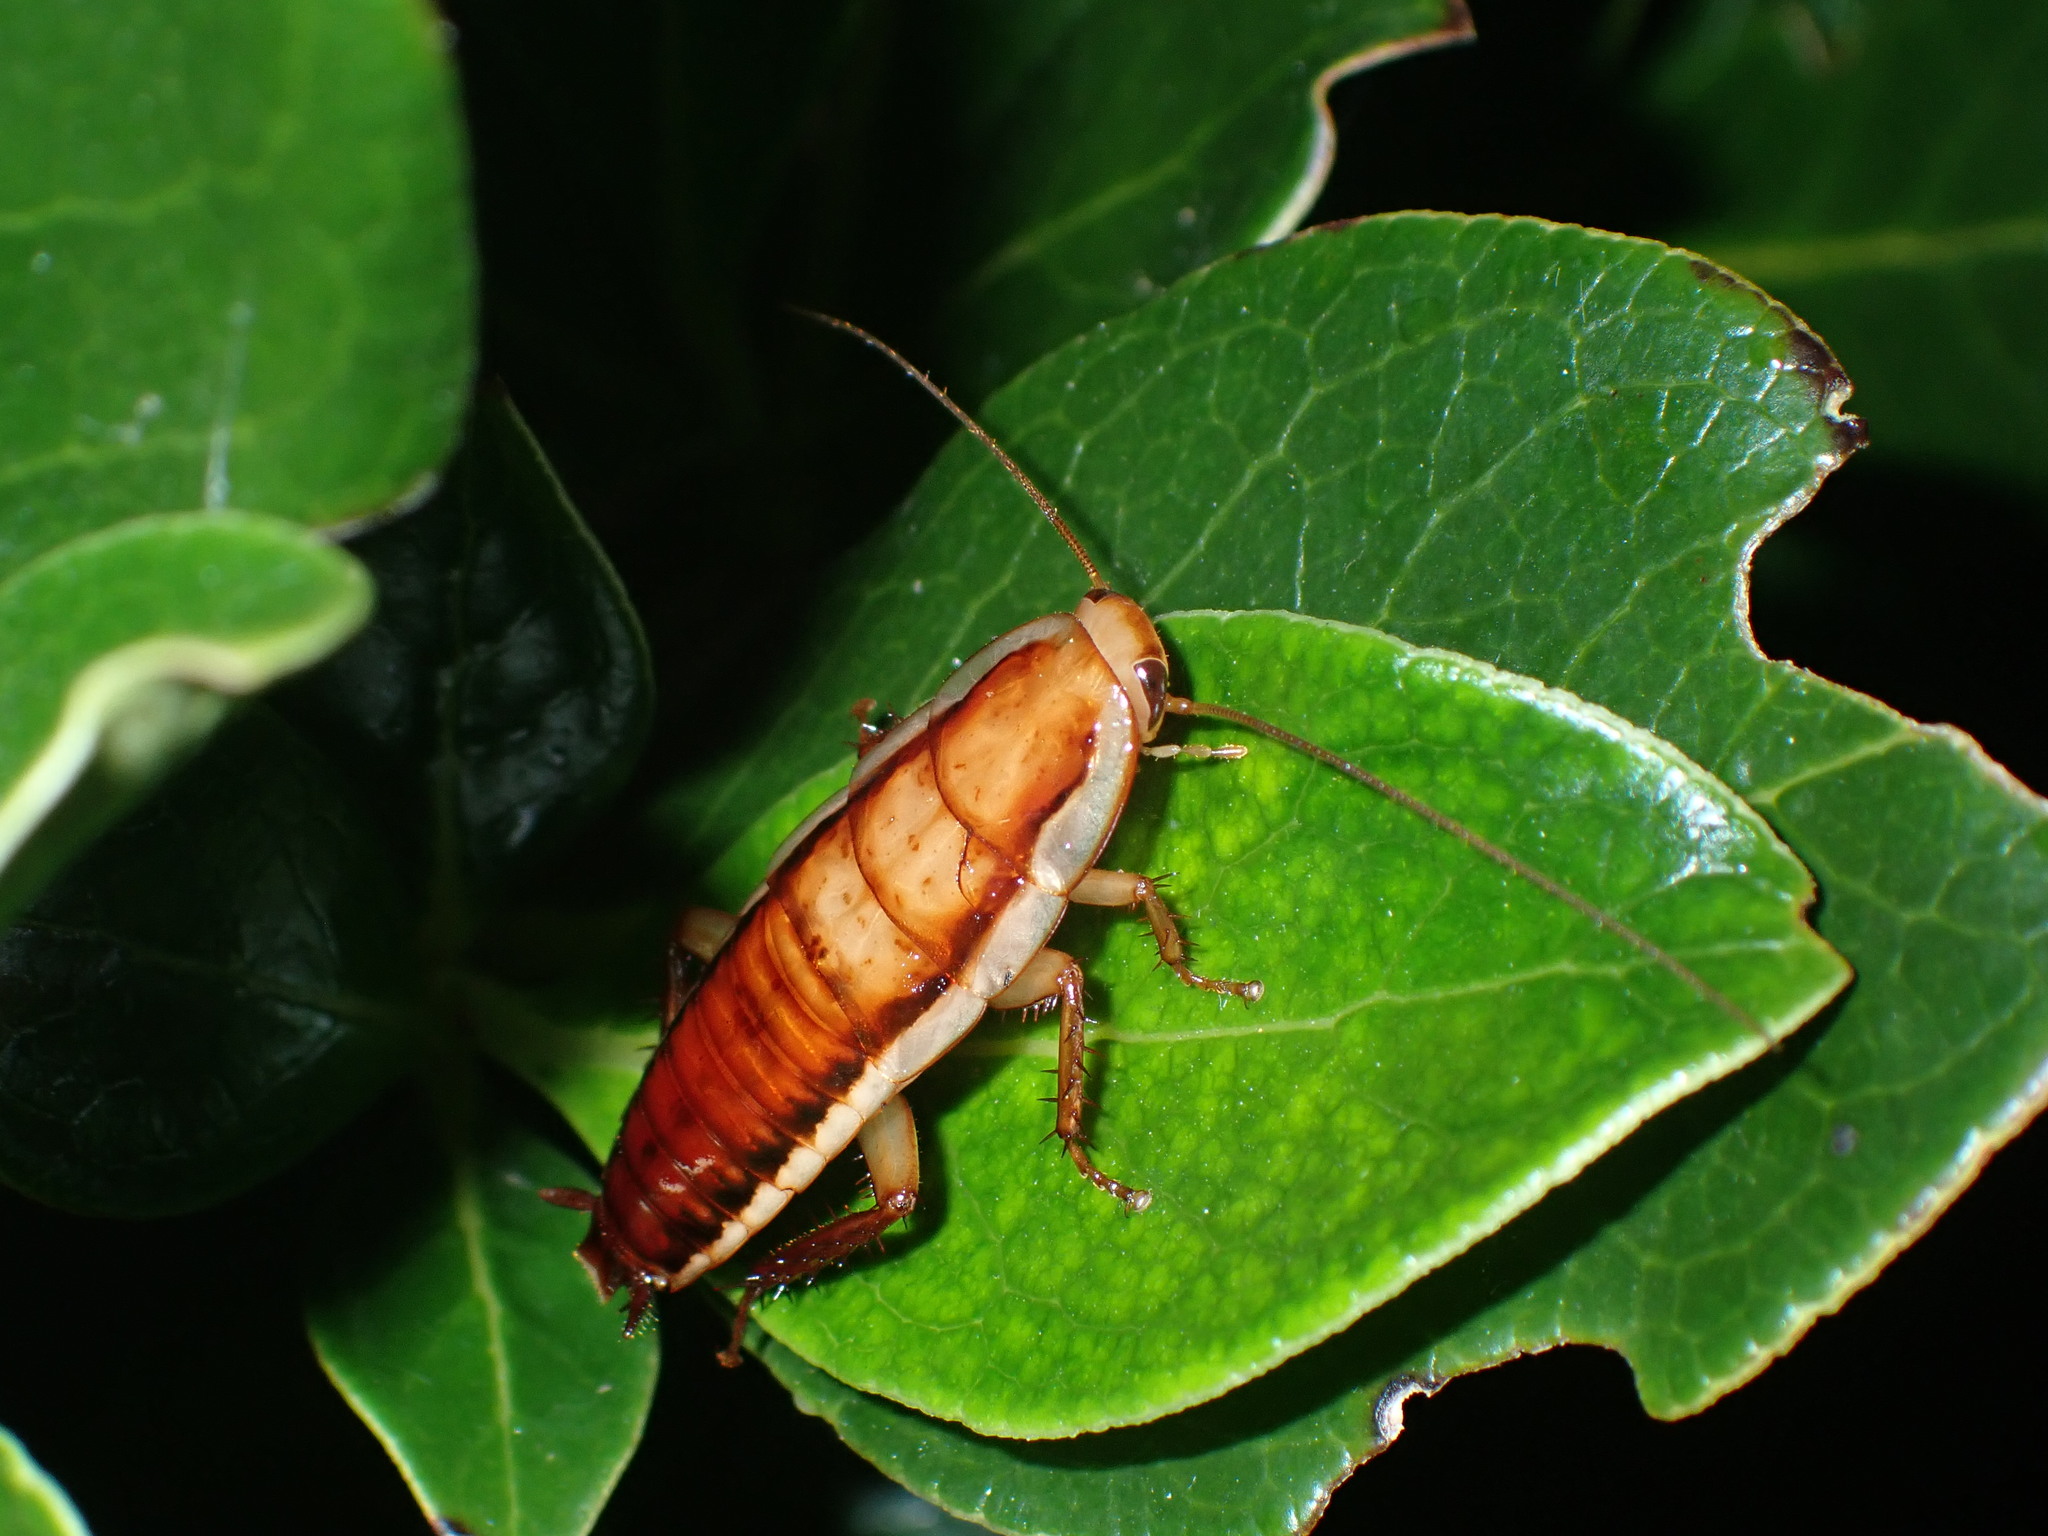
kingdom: Animalia
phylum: Arthropoda
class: Insecta
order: Blattodea
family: Blattidae
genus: Drymaplaneta
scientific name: Drymaplaneta heydeniana
